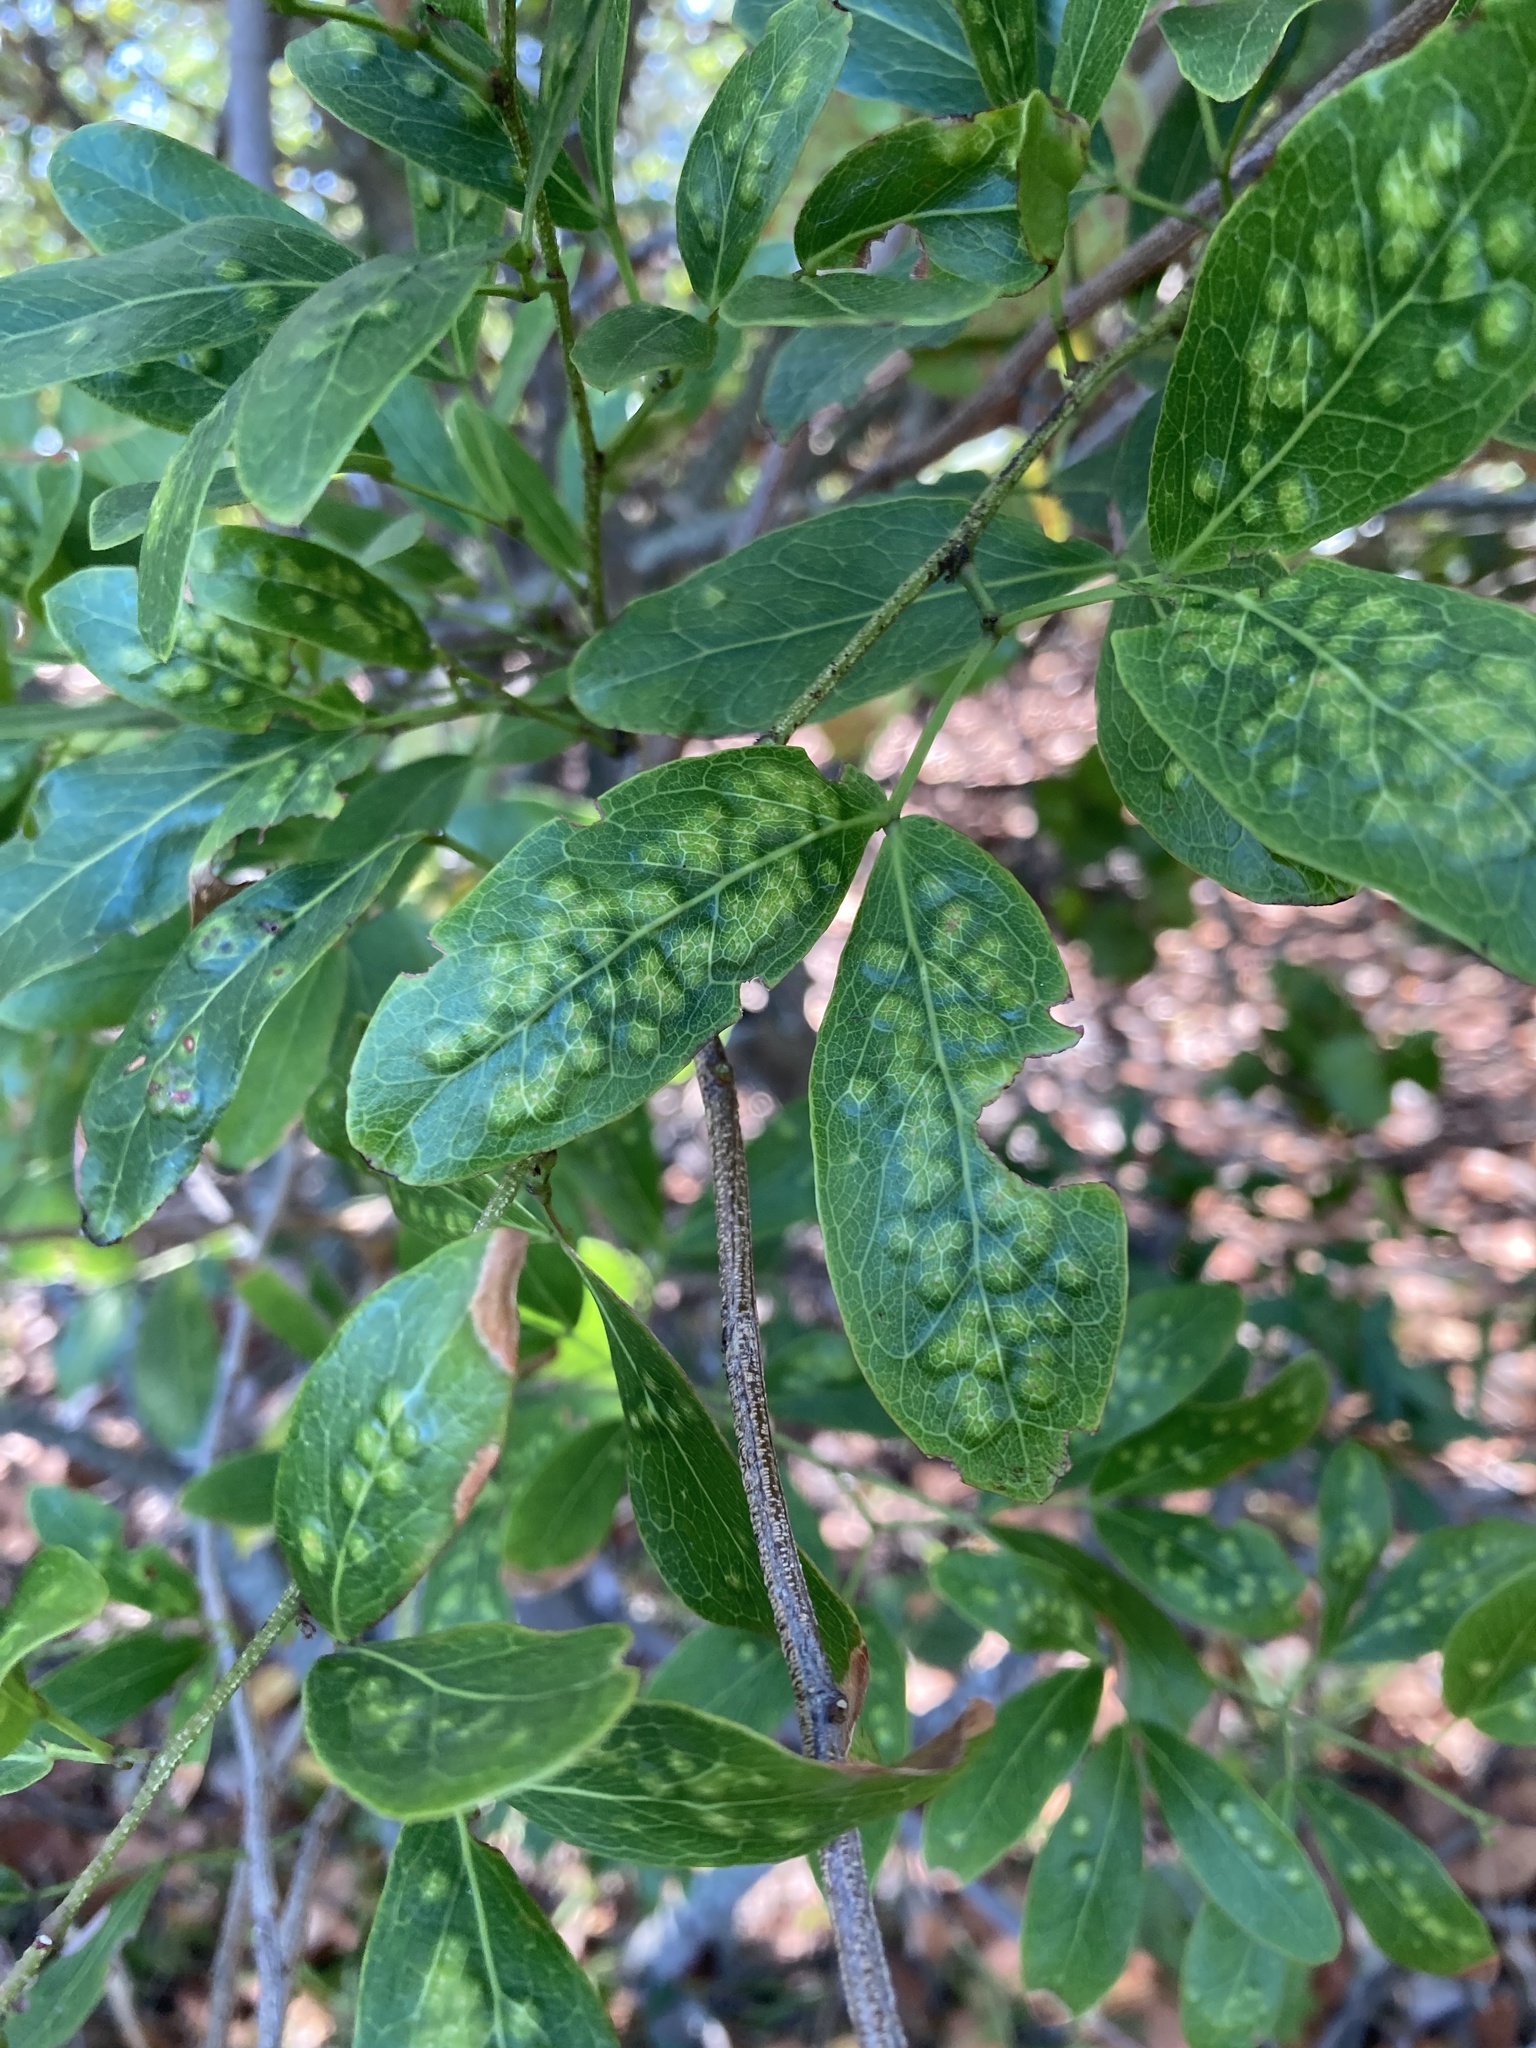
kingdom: Animalia
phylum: Arthropoda
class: Insecta
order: Hymenoptera
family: Tanaostigmatidae
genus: Tanaostigmodes
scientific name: Tanaostigmodes pithecellobiae
